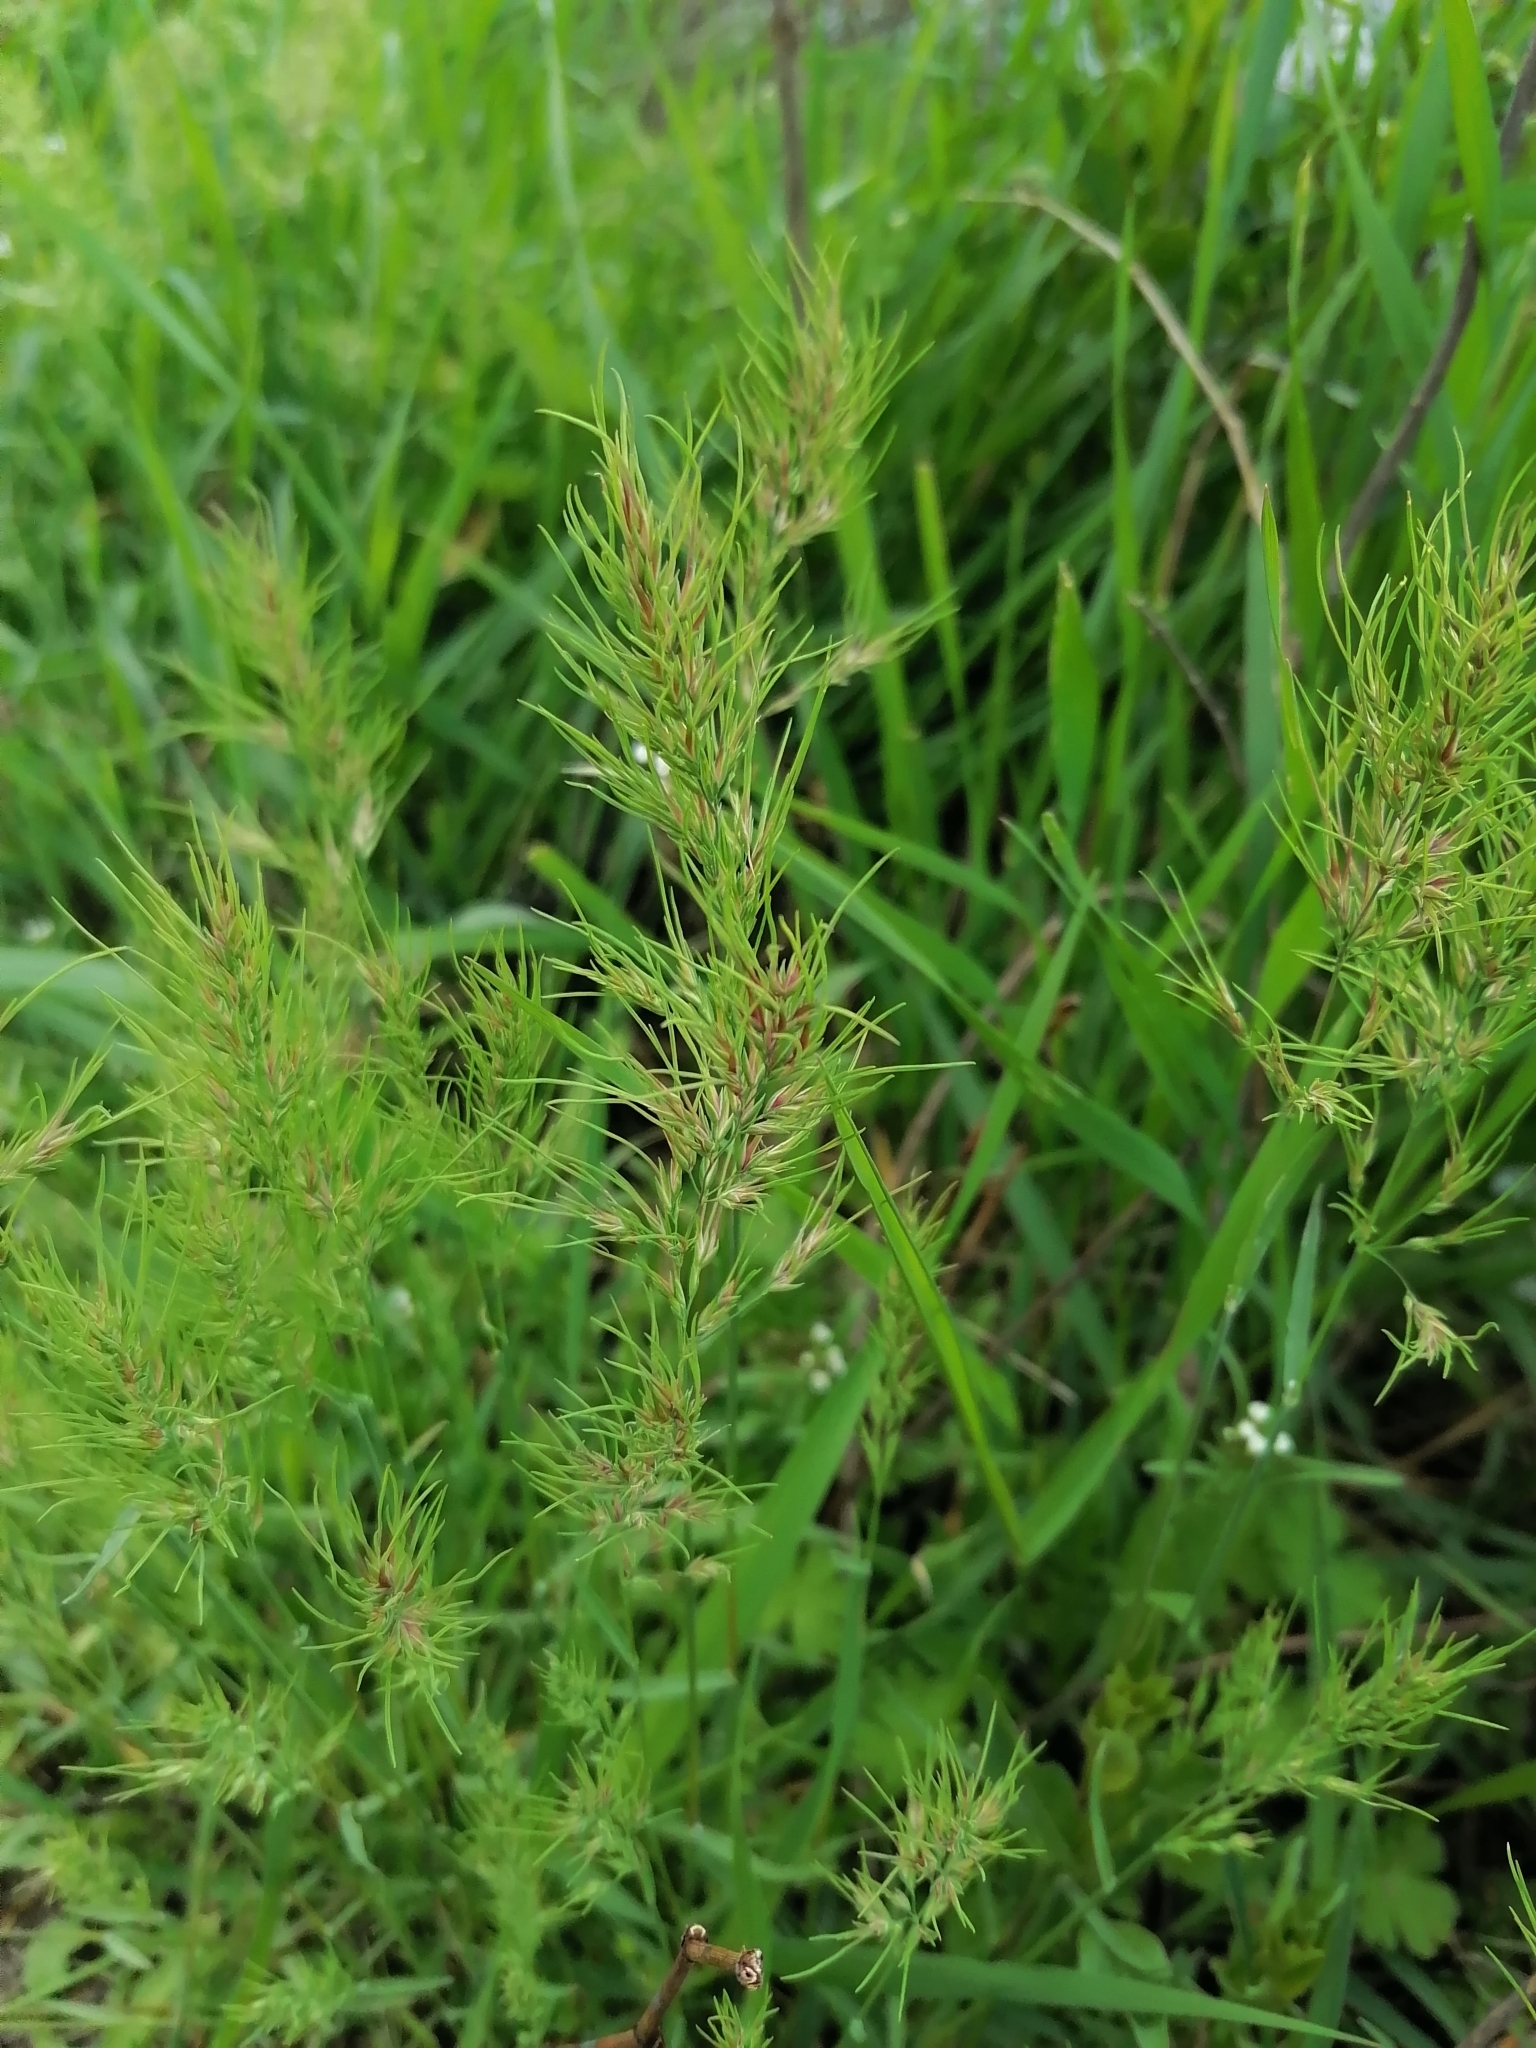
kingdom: Plantae
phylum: Tracheophyta
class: Liliopsida
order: Poales
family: Poaceae
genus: Poa
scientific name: Poa bulbosa
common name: Bulbous bluegrass
